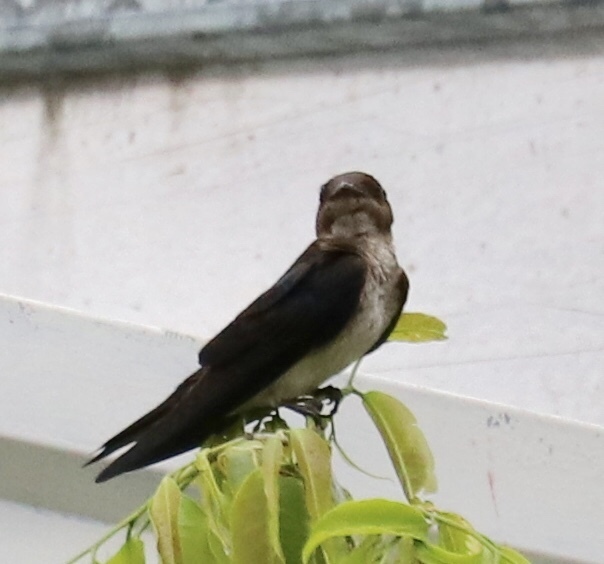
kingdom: Animalia
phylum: Chordata
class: Aves
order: Passeriformes
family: Hirundinidae
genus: Progne
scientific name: Progne chalybea
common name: Grey-breasted martin
